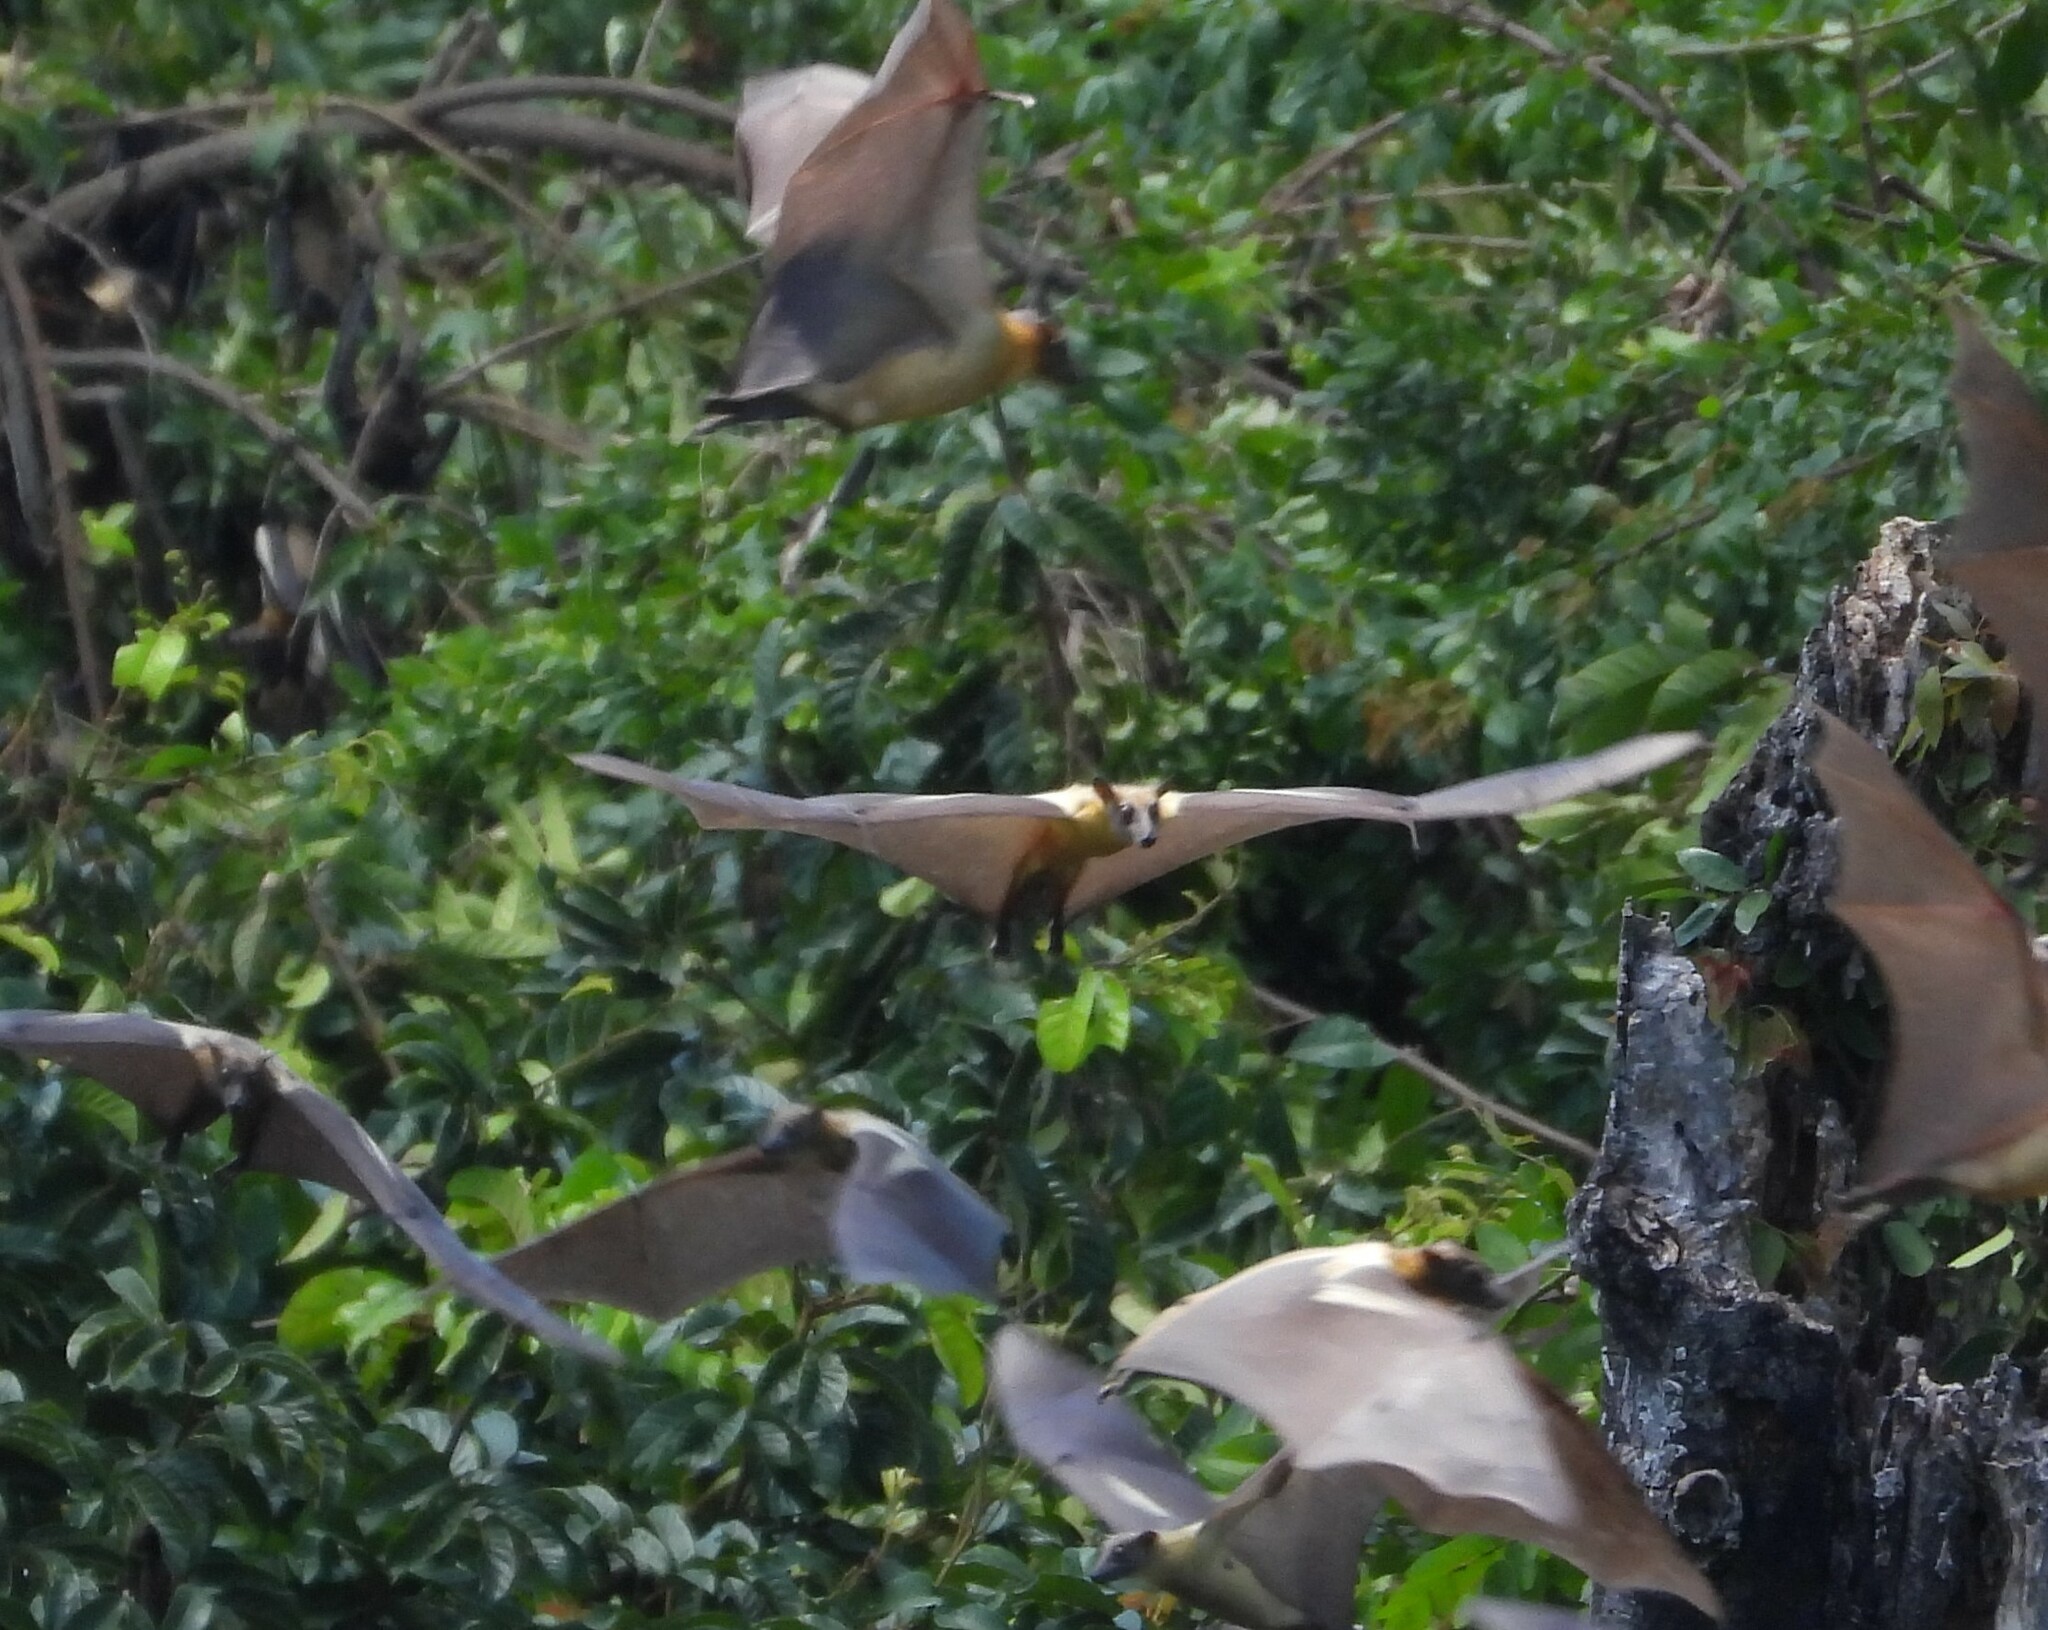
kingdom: Animalia
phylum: Chordata
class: Mammalia
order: Chiroptera
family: Pteropodidae
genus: Eidolon
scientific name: Eidolon helvum
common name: Straw-colored fruit bat
